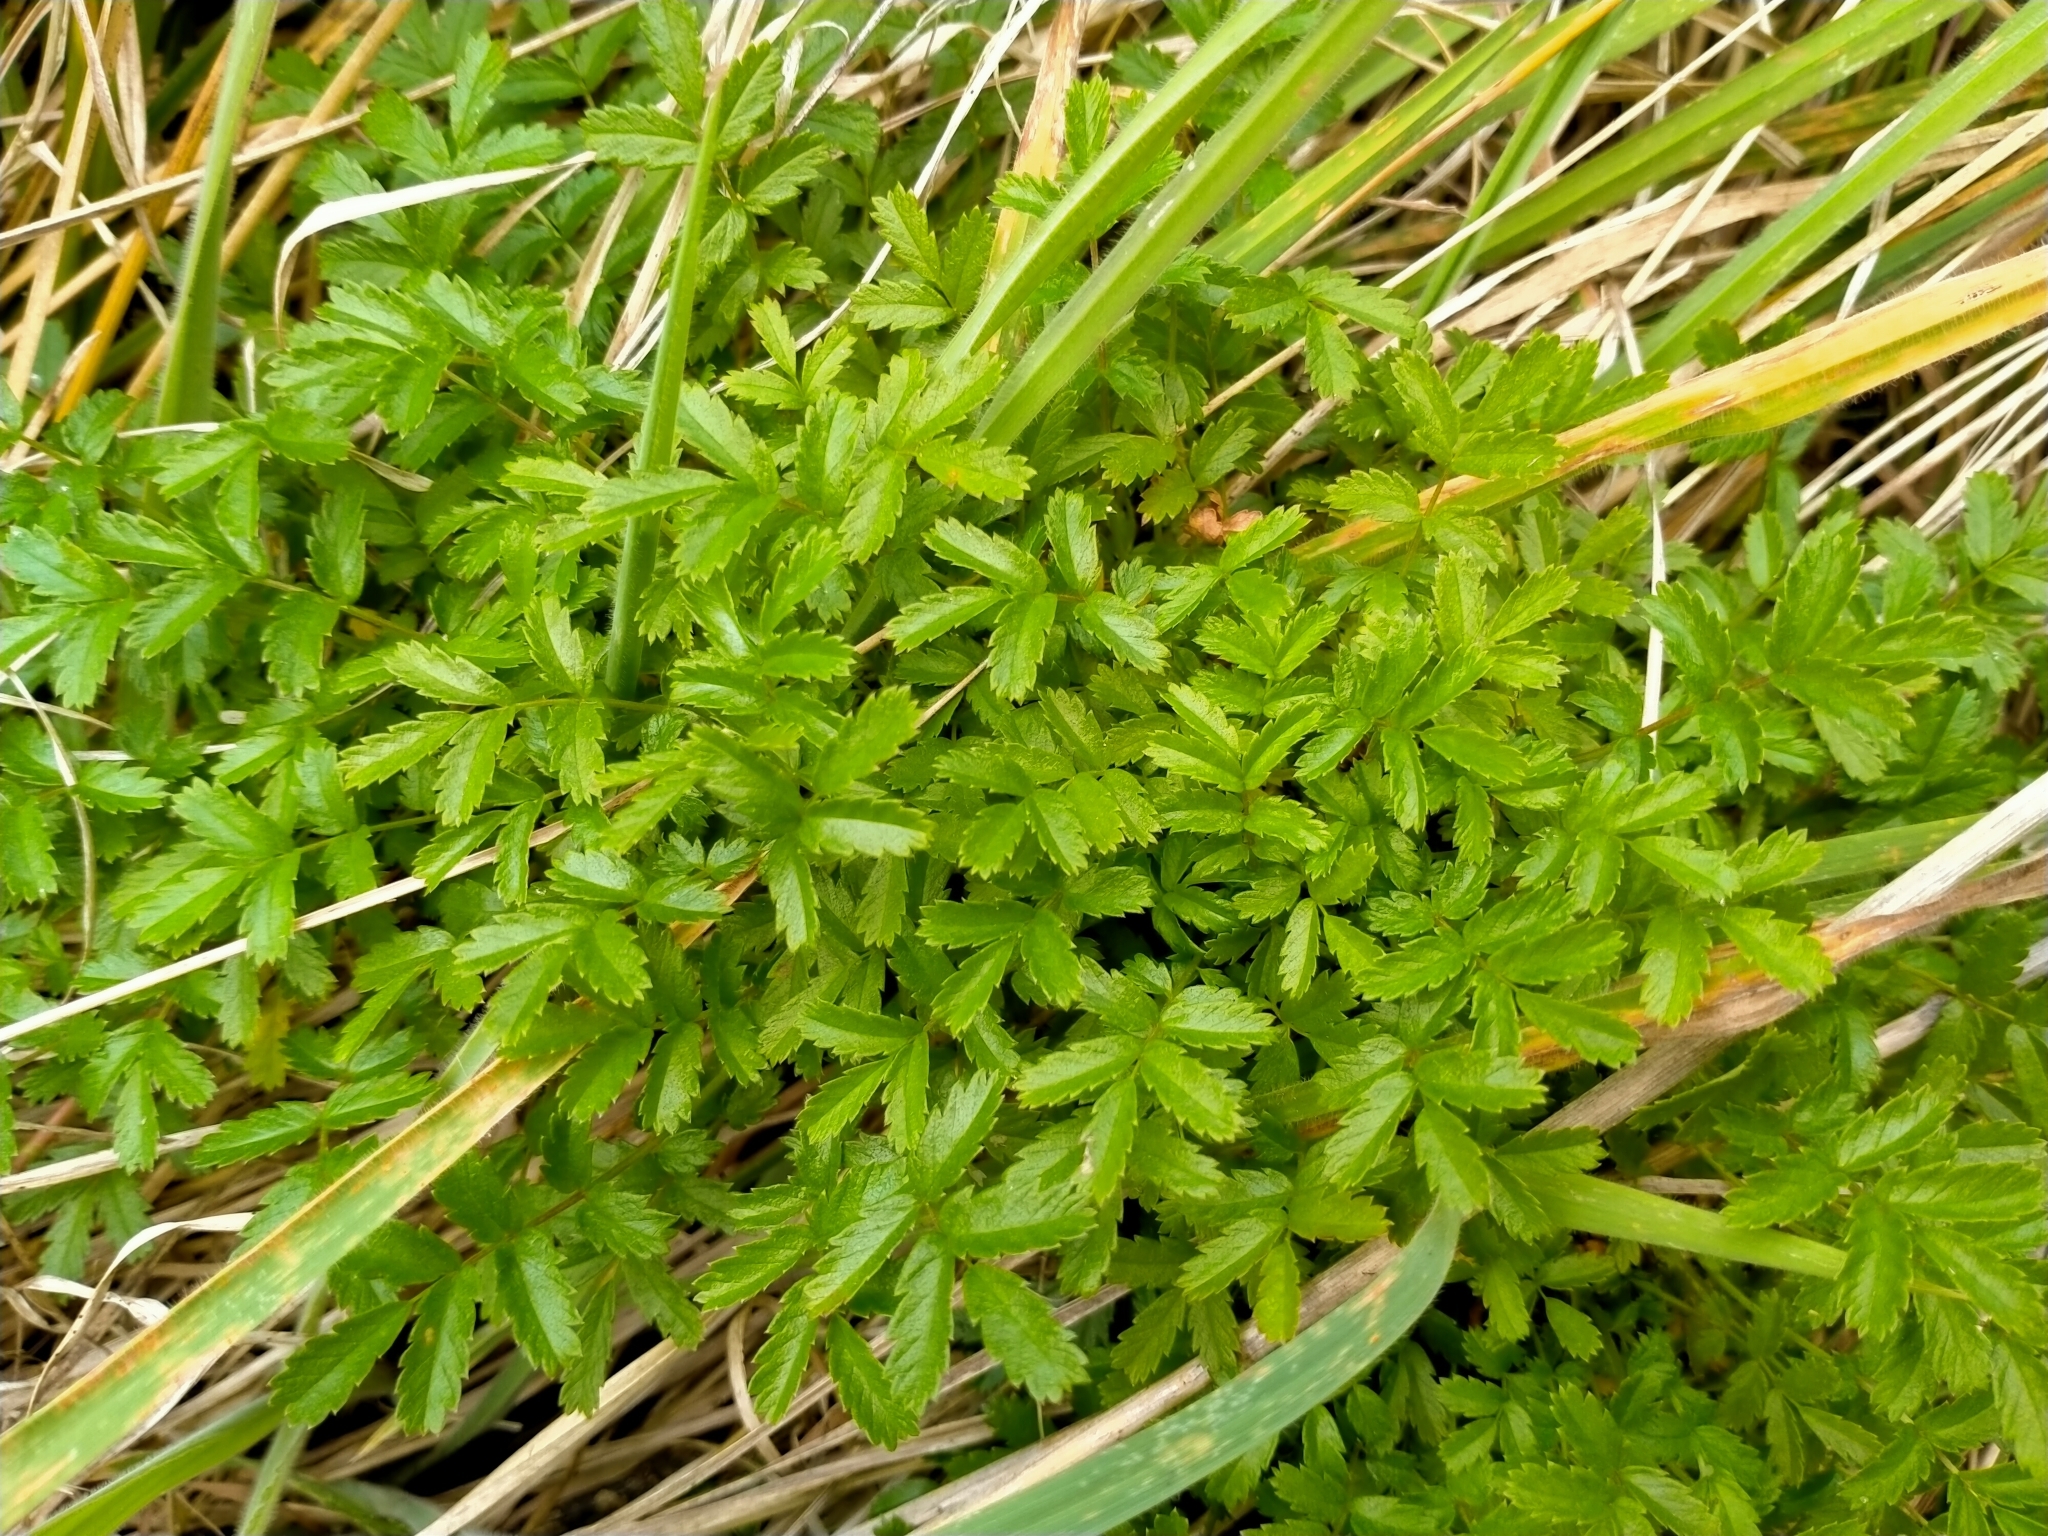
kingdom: Plantae
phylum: Tracheophyta
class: Magnoliopsida
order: Rosales
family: Rosaceae
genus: Acaena
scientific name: Acaena novae-zelandiae
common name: Pirri-pirri-bur
